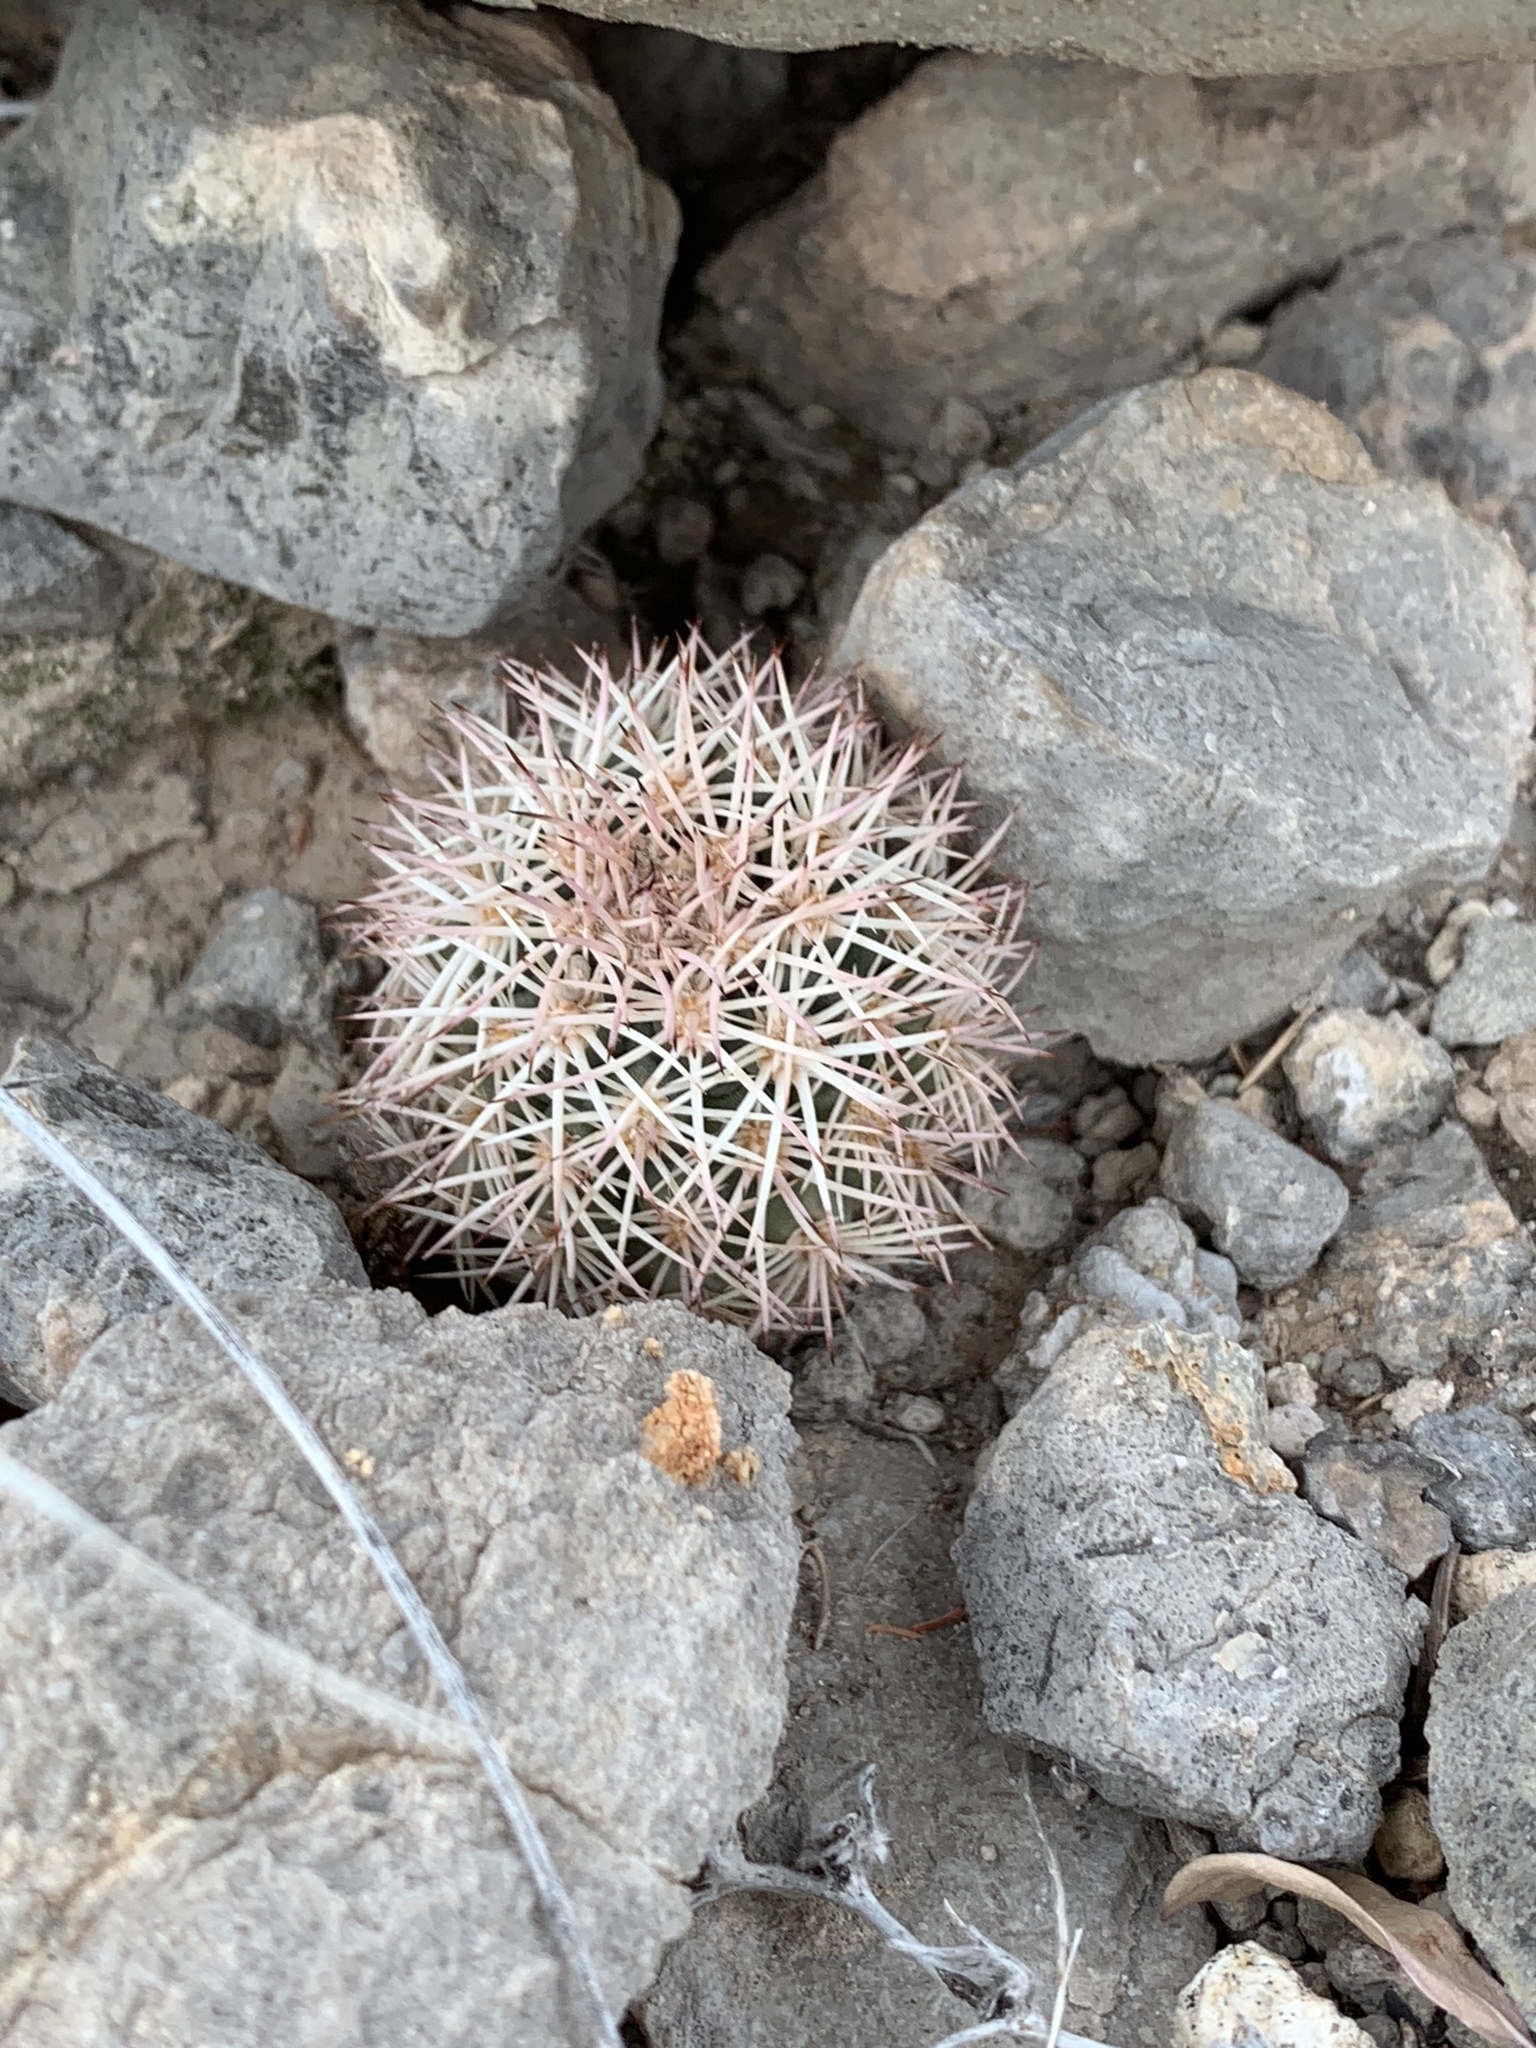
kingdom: Plantae
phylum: Tracheophyta
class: Magnoliopsida
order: Caryophyllales
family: Cactaceae
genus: Echinocereus
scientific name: Echinocereus dasyacanthus
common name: Spiny hedgehog cactus
